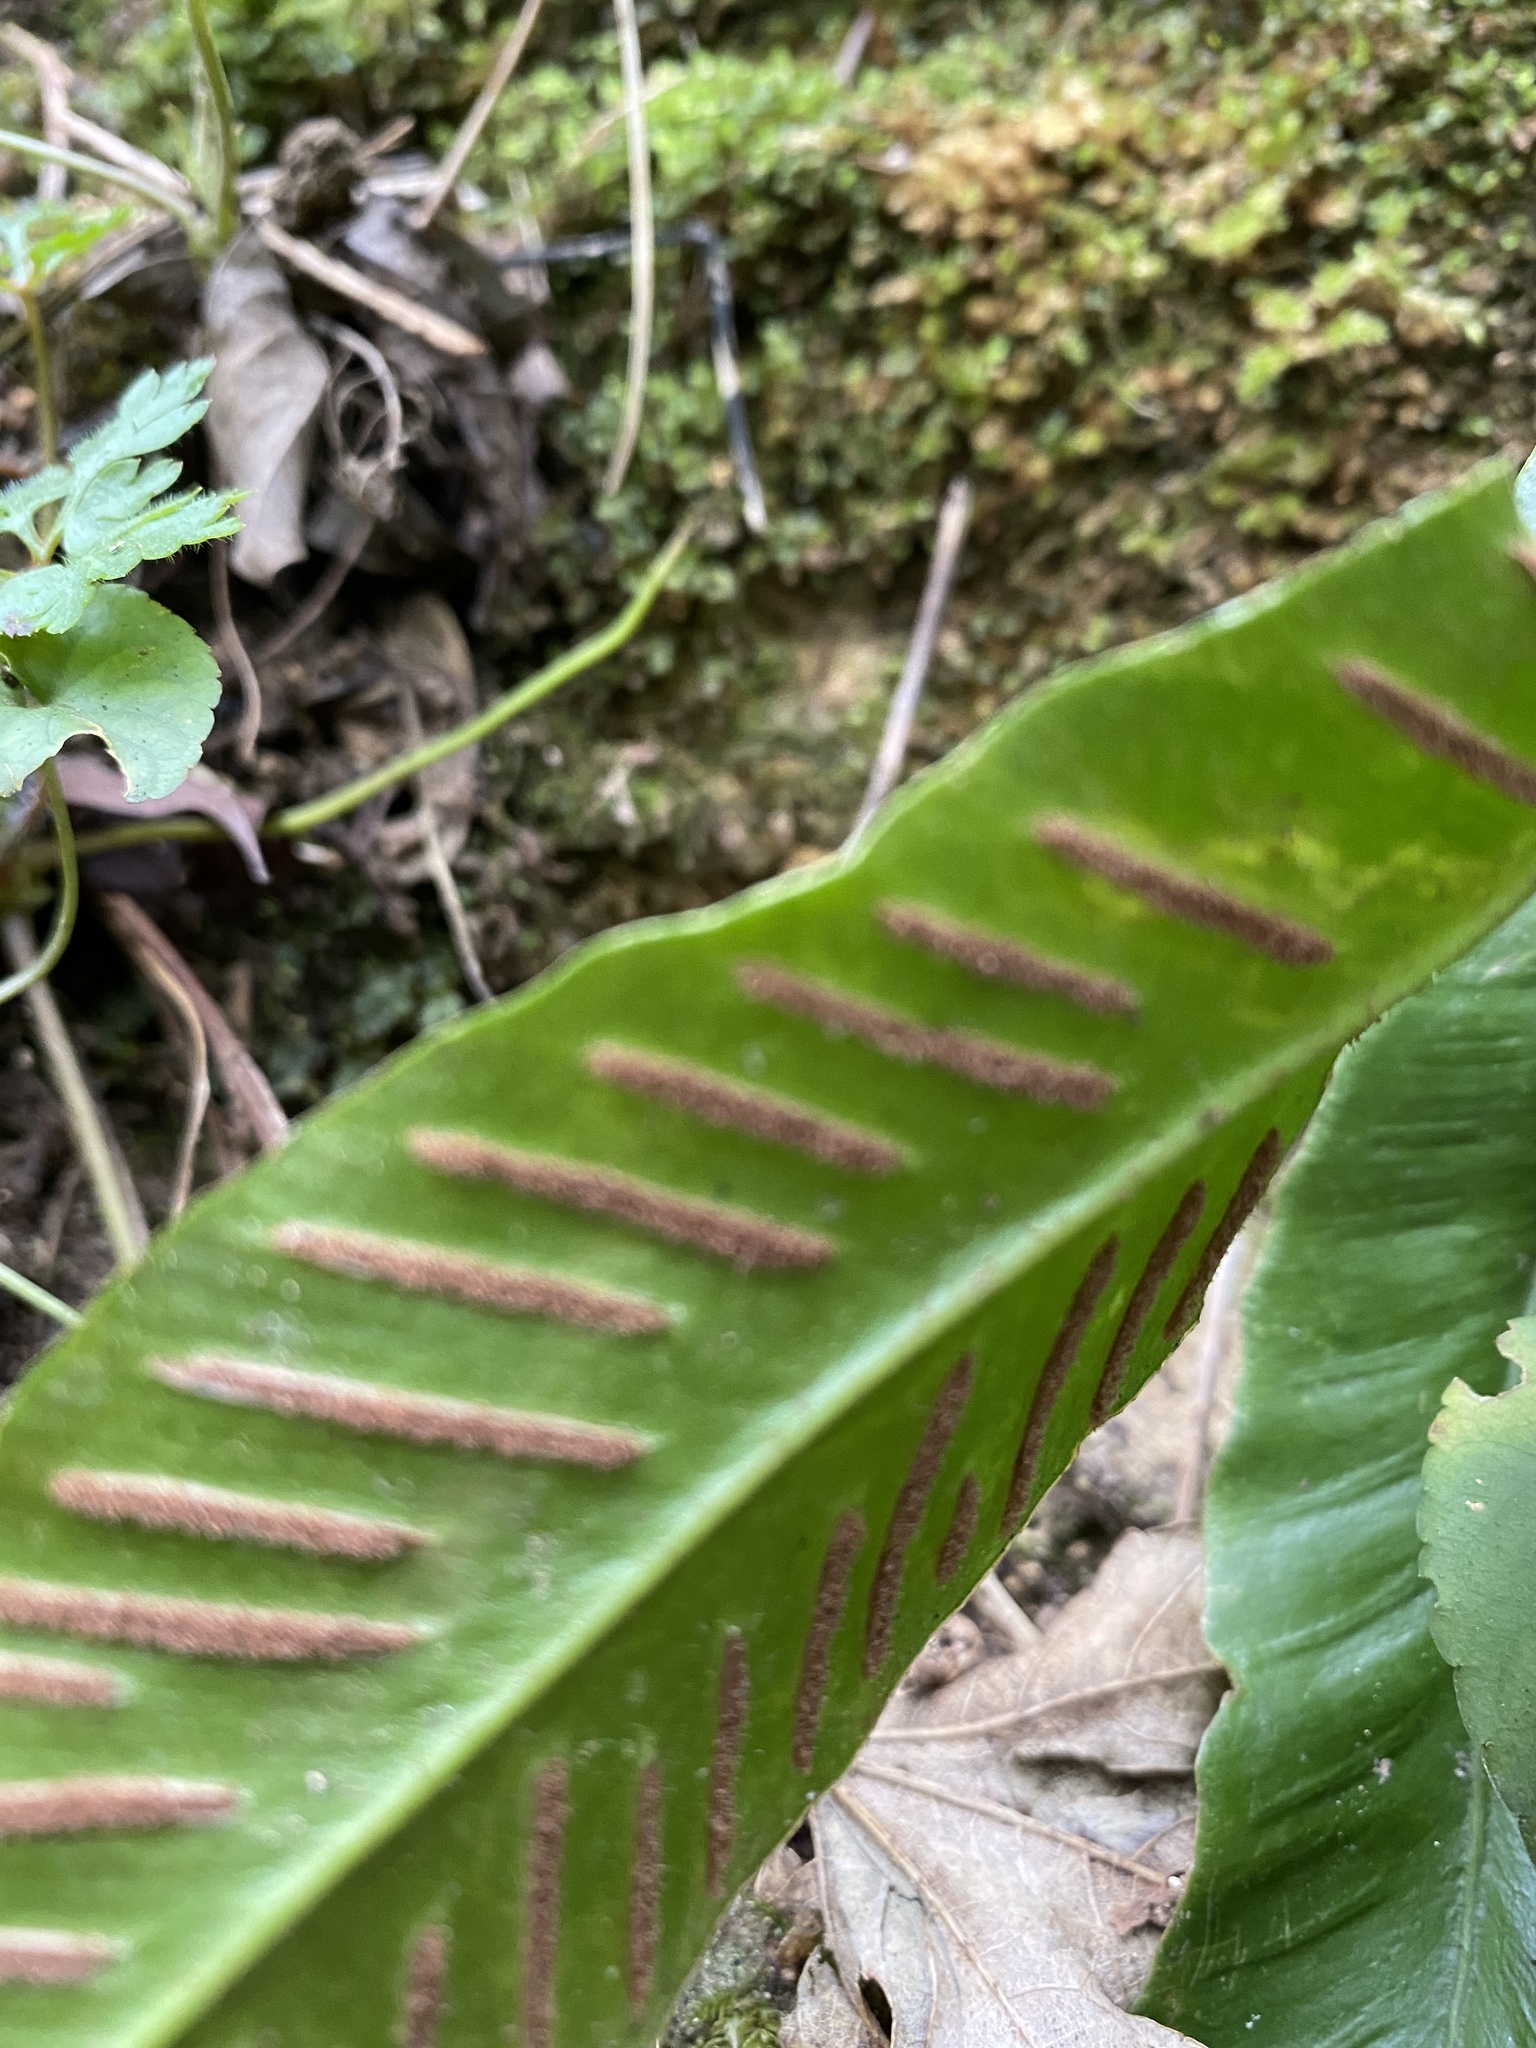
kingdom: Plantae
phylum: Tracheophyta
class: Polypodiopsida
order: Polypodiales
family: Aspleniaceae
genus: Asplenium
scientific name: Asplenium scolopendrium
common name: Hart's-tongue fern
